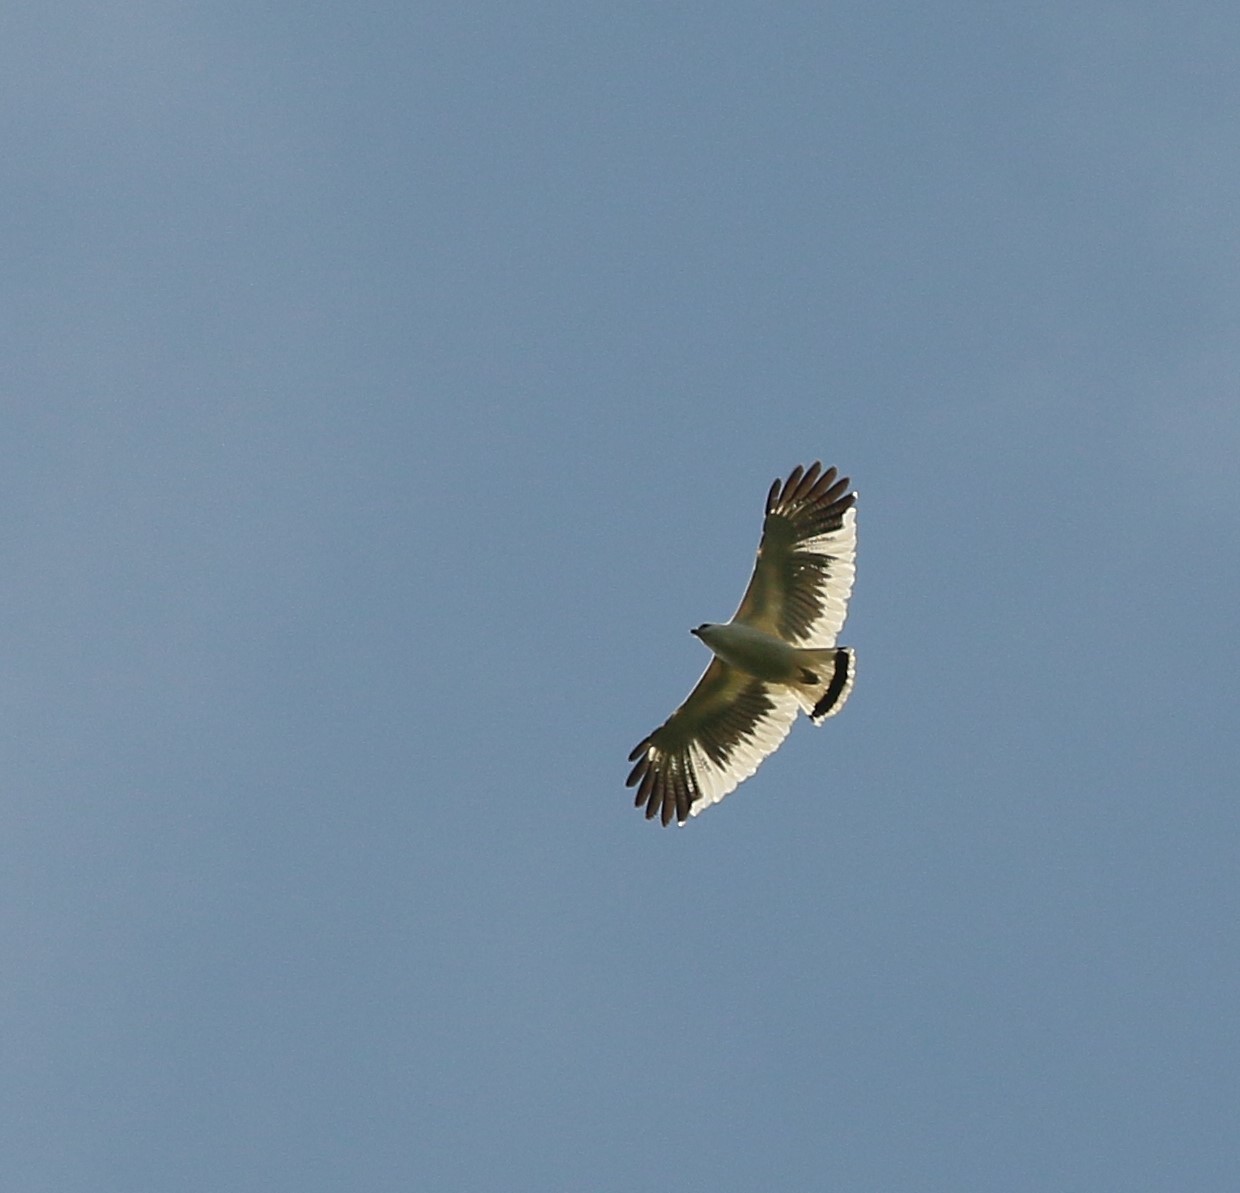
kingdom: Animalia
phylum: Chordata
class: Aves
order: Accipitriformes
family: Accipitridae
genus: Leucopternis
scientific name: Leucopternis albicollis
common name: White hawk
